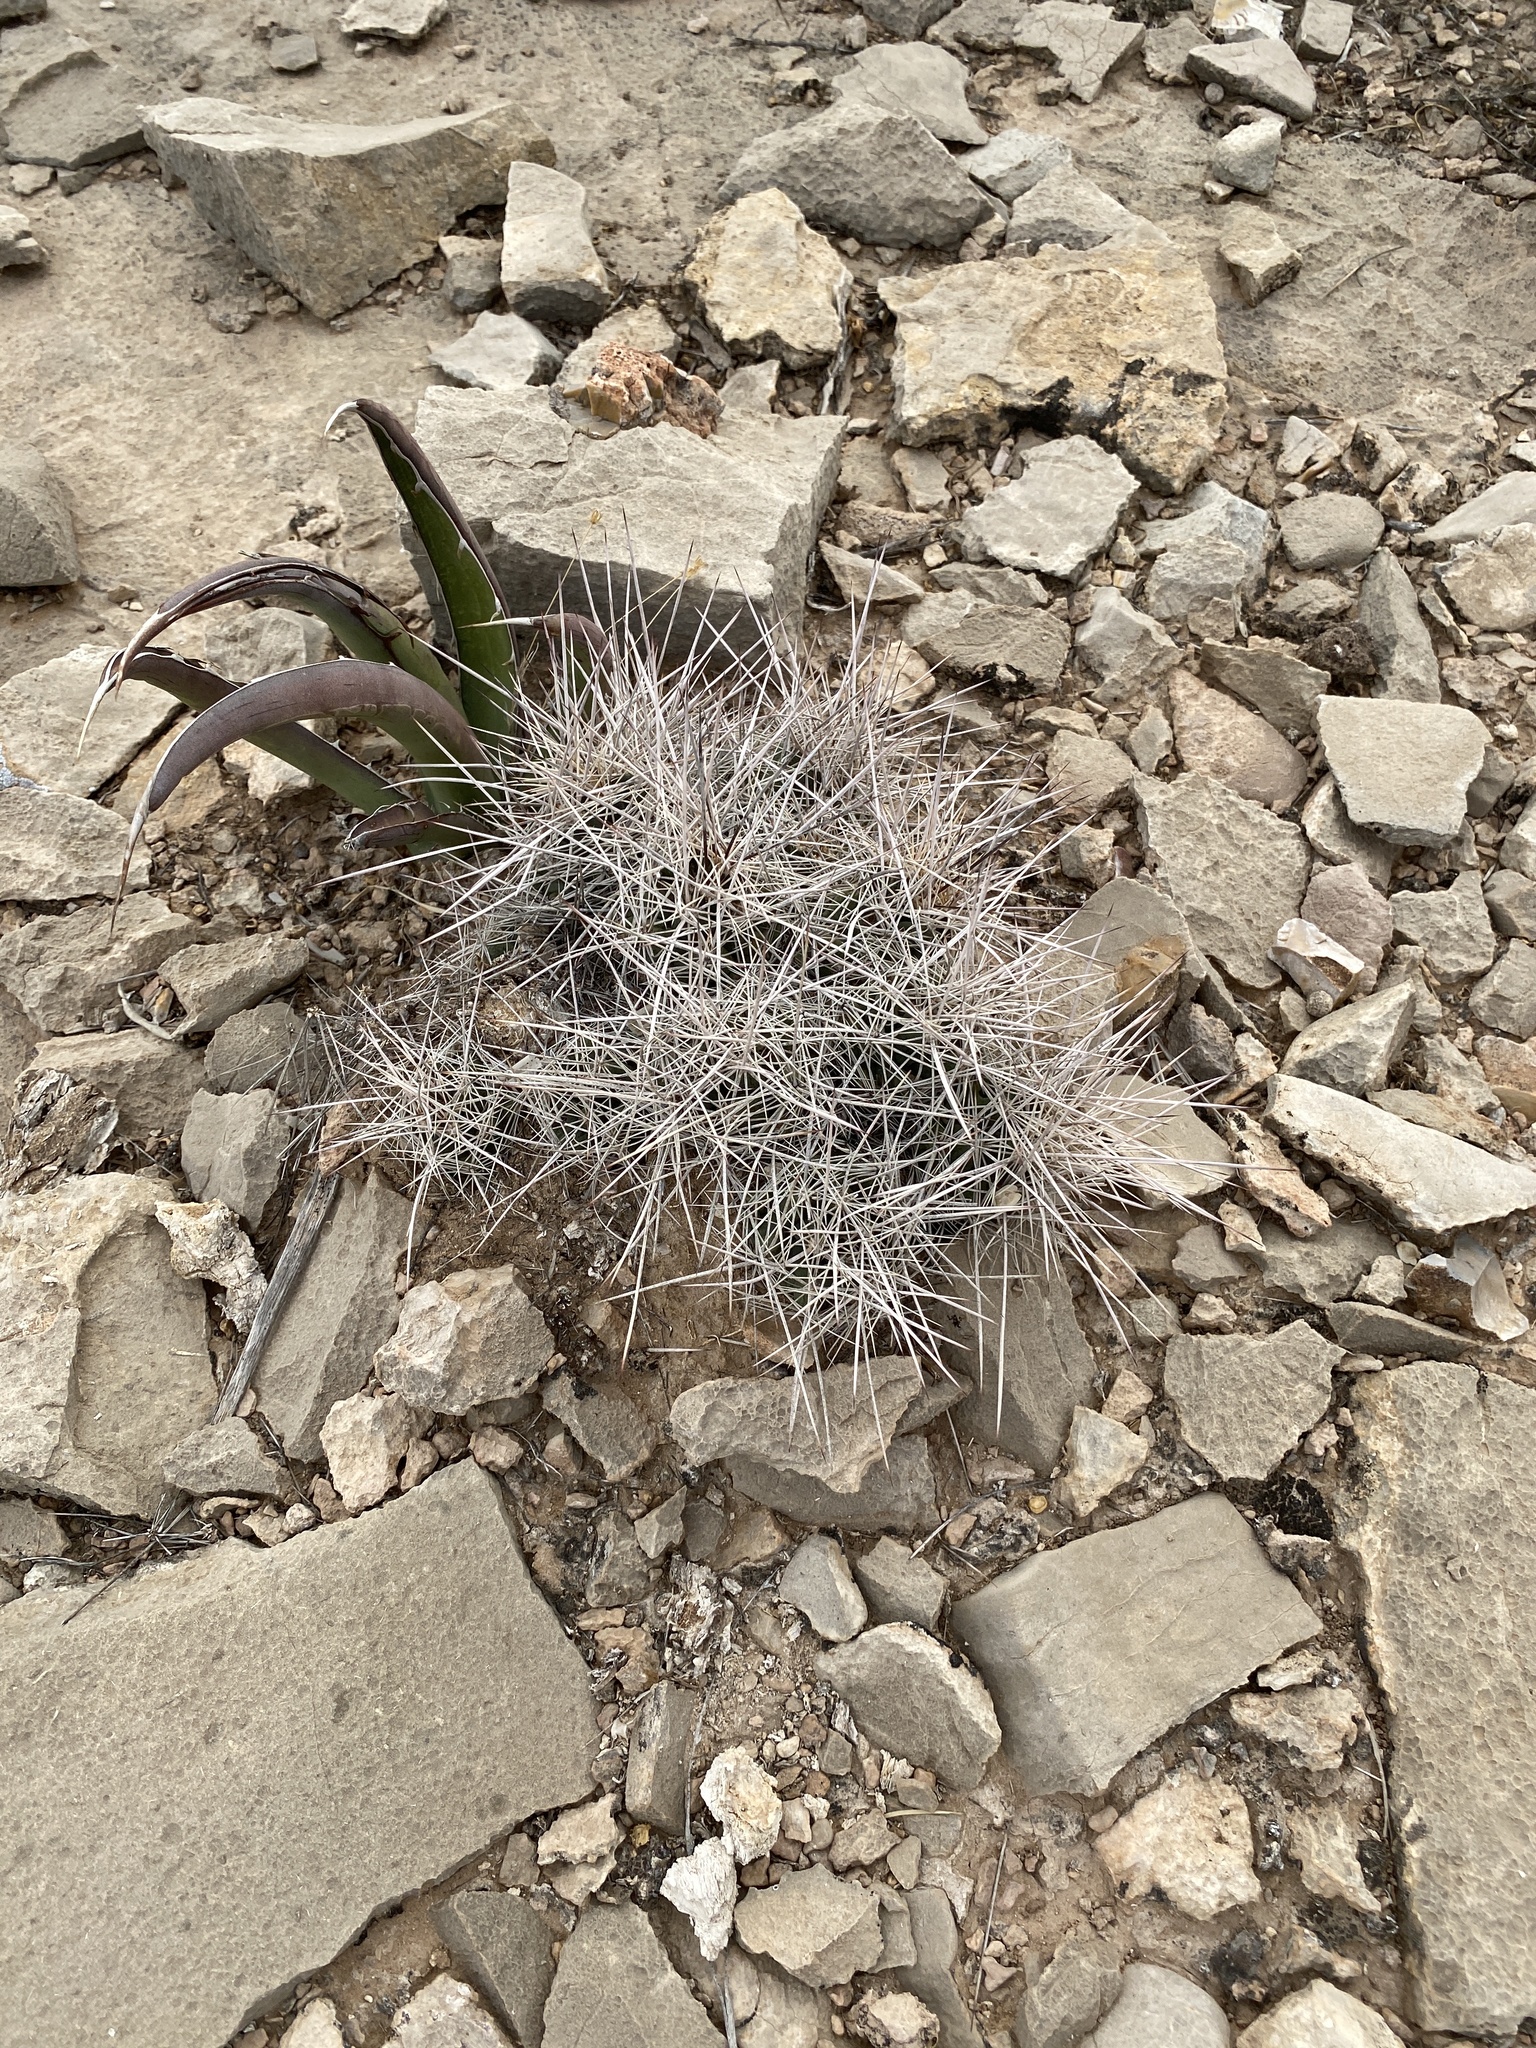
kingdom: Plantae
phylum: Tracheophyta
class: Magnoliopsida
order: Caryophyllales
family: Cactaceae
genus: Coryphantha
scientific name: Coryphantha macromeris
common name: Nipple beehive cactus
